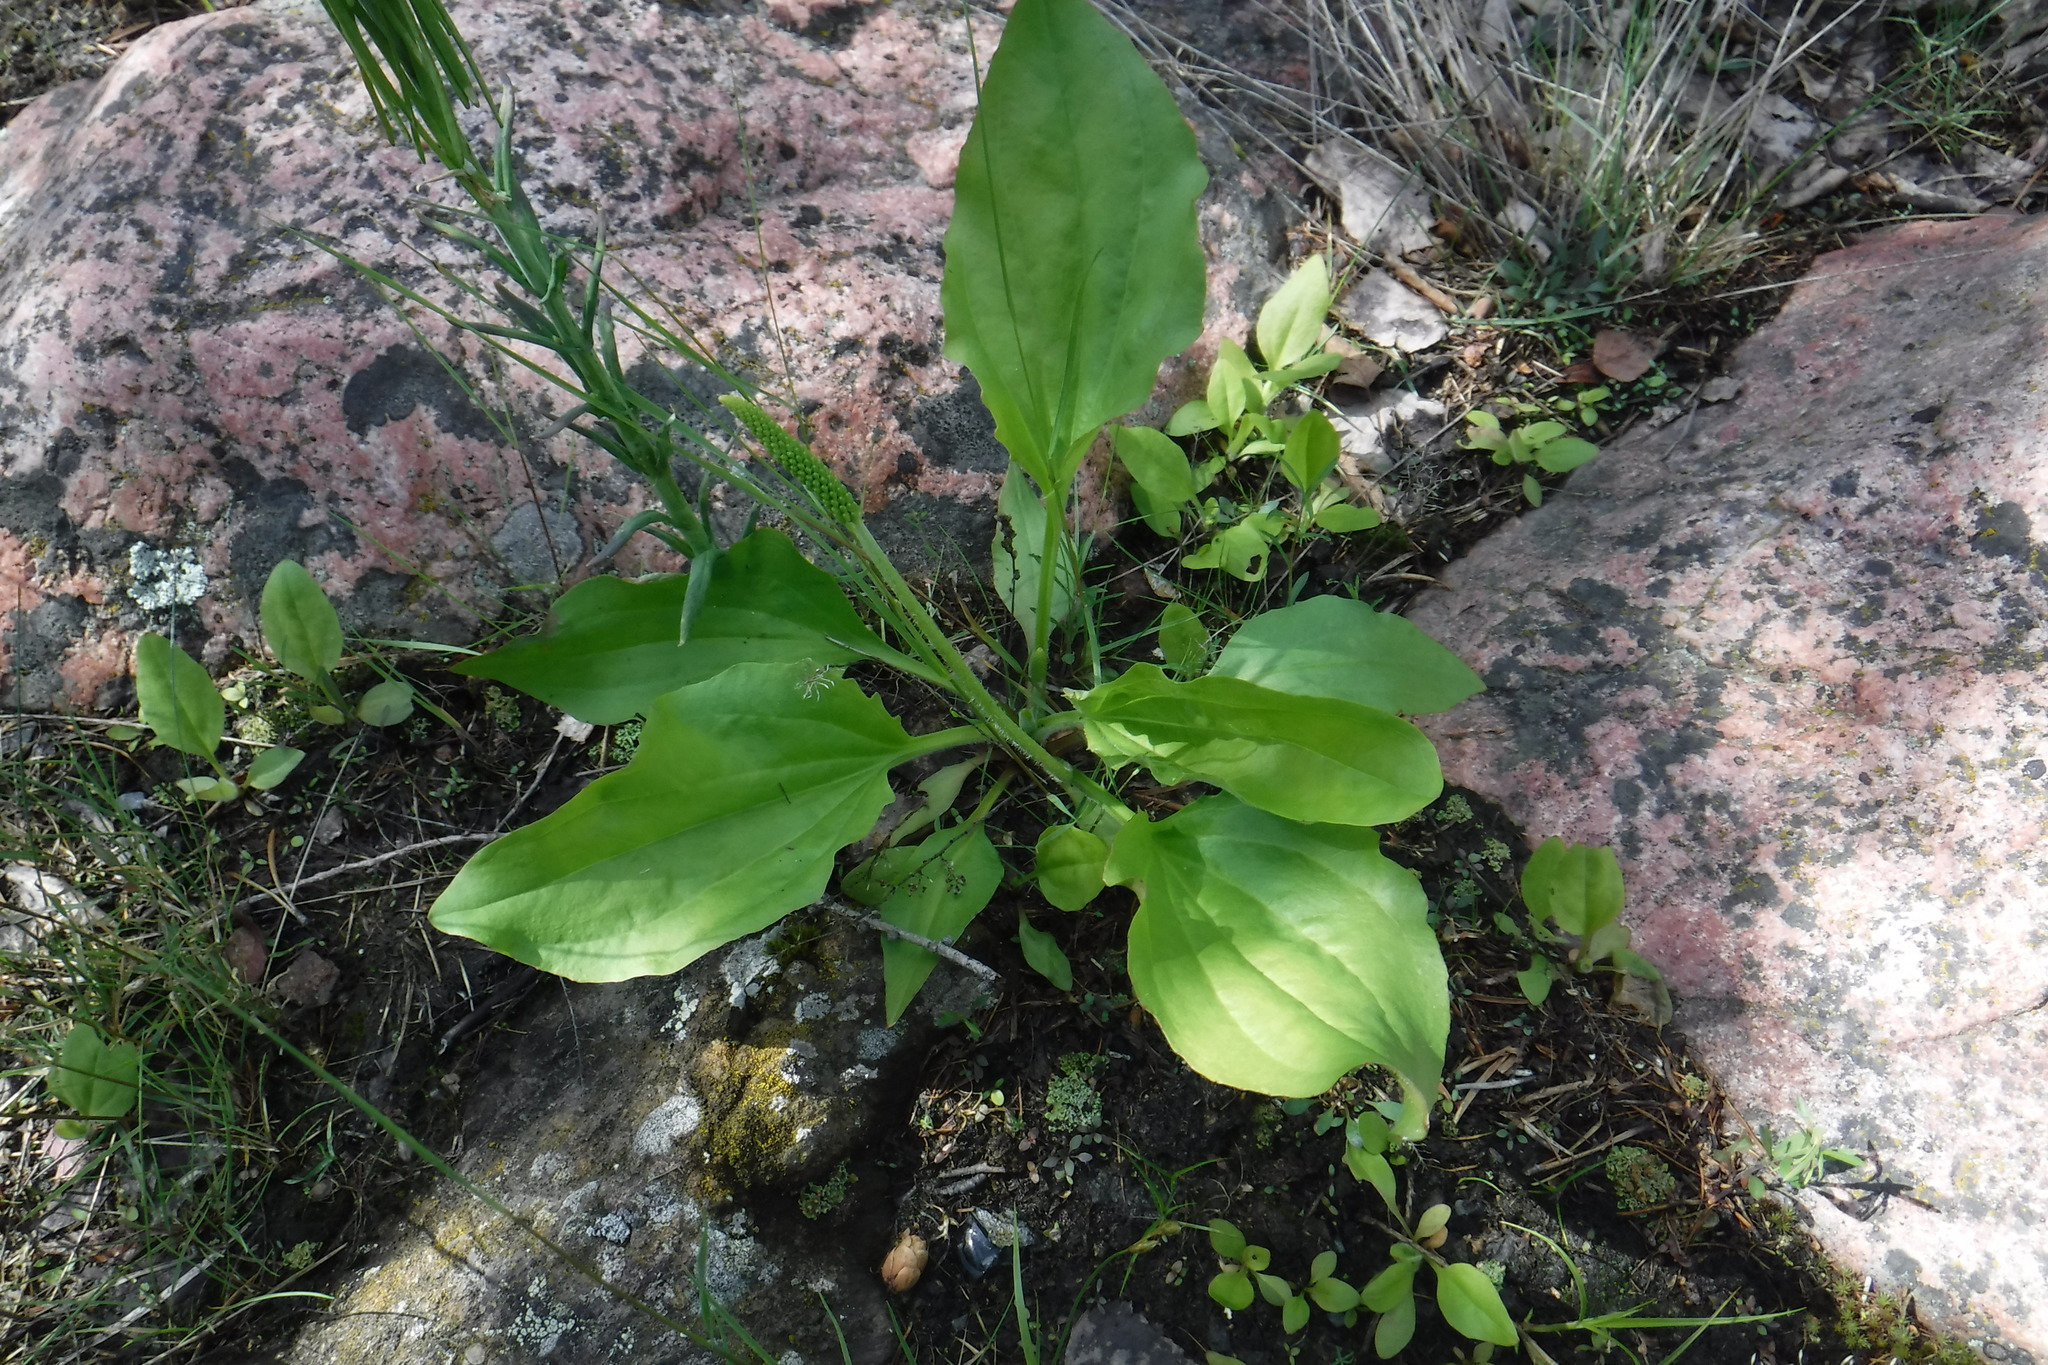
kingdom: Plantae
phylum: Tracheophyta
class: Magnoliopsida
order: Lamiales
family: Plantaginaceae
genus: Plantago
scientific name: Plantago major
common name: Common plantain
